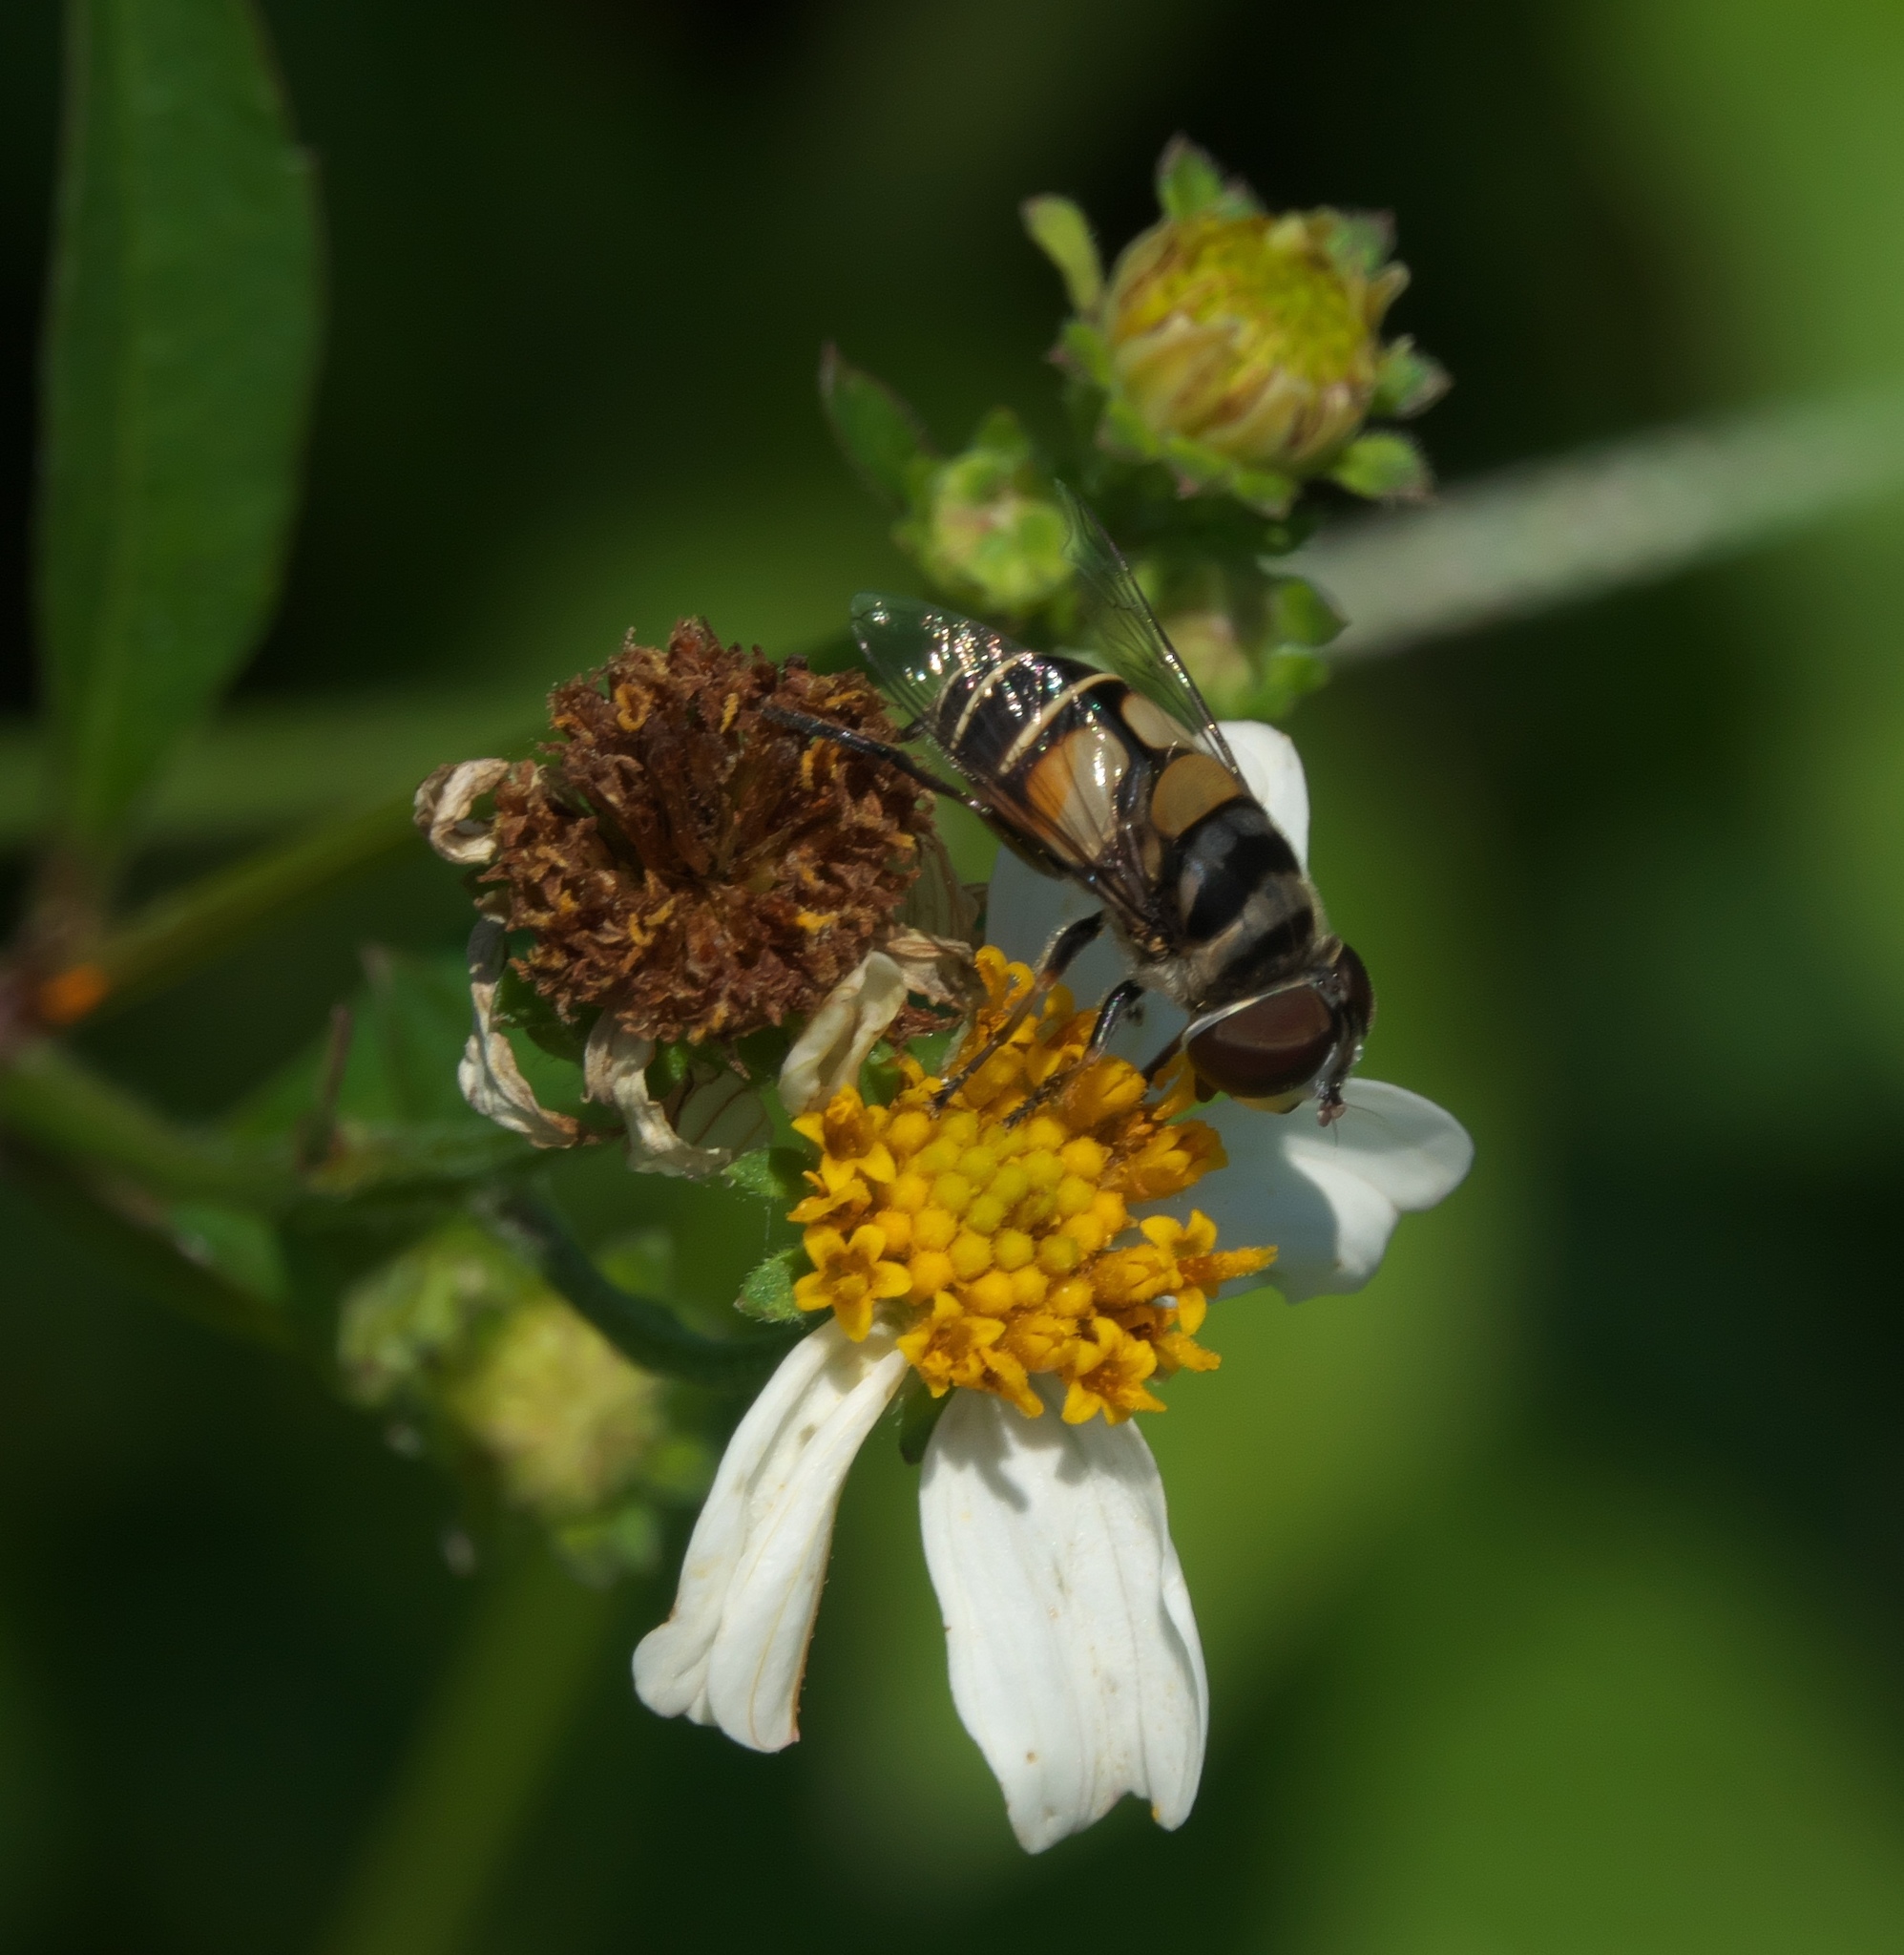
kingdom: Animalia
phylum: Arthropoda
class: Insecta
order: Diptera
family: Syrphidae
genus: Palpada
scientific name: Palpada albifrons
